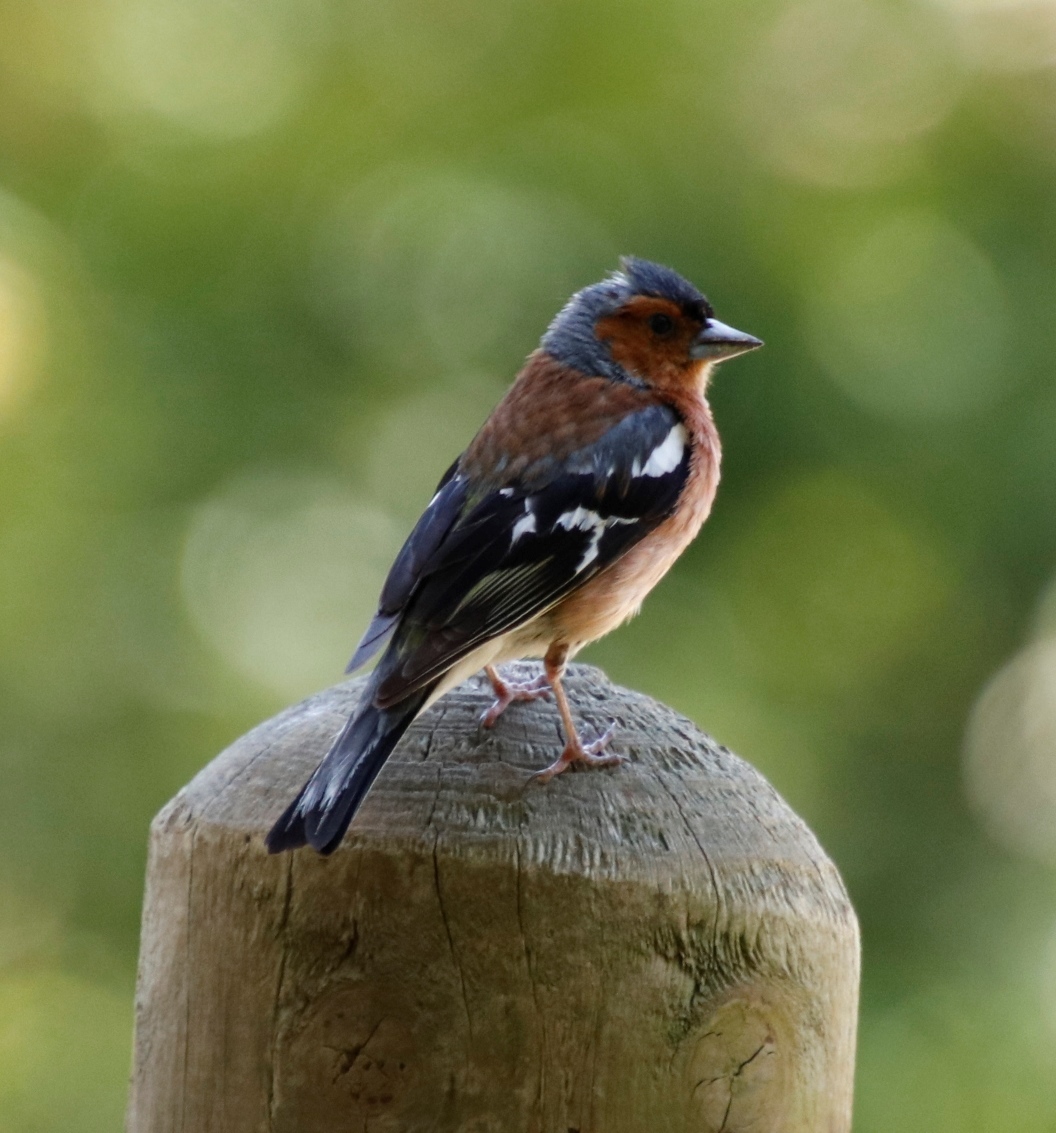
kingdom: Animalia
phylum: Chordata
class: Aves
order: Passeriformes
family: Fringillidae
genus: Fringilla
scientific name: Fringilla coelebs
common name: Common chaffinch
